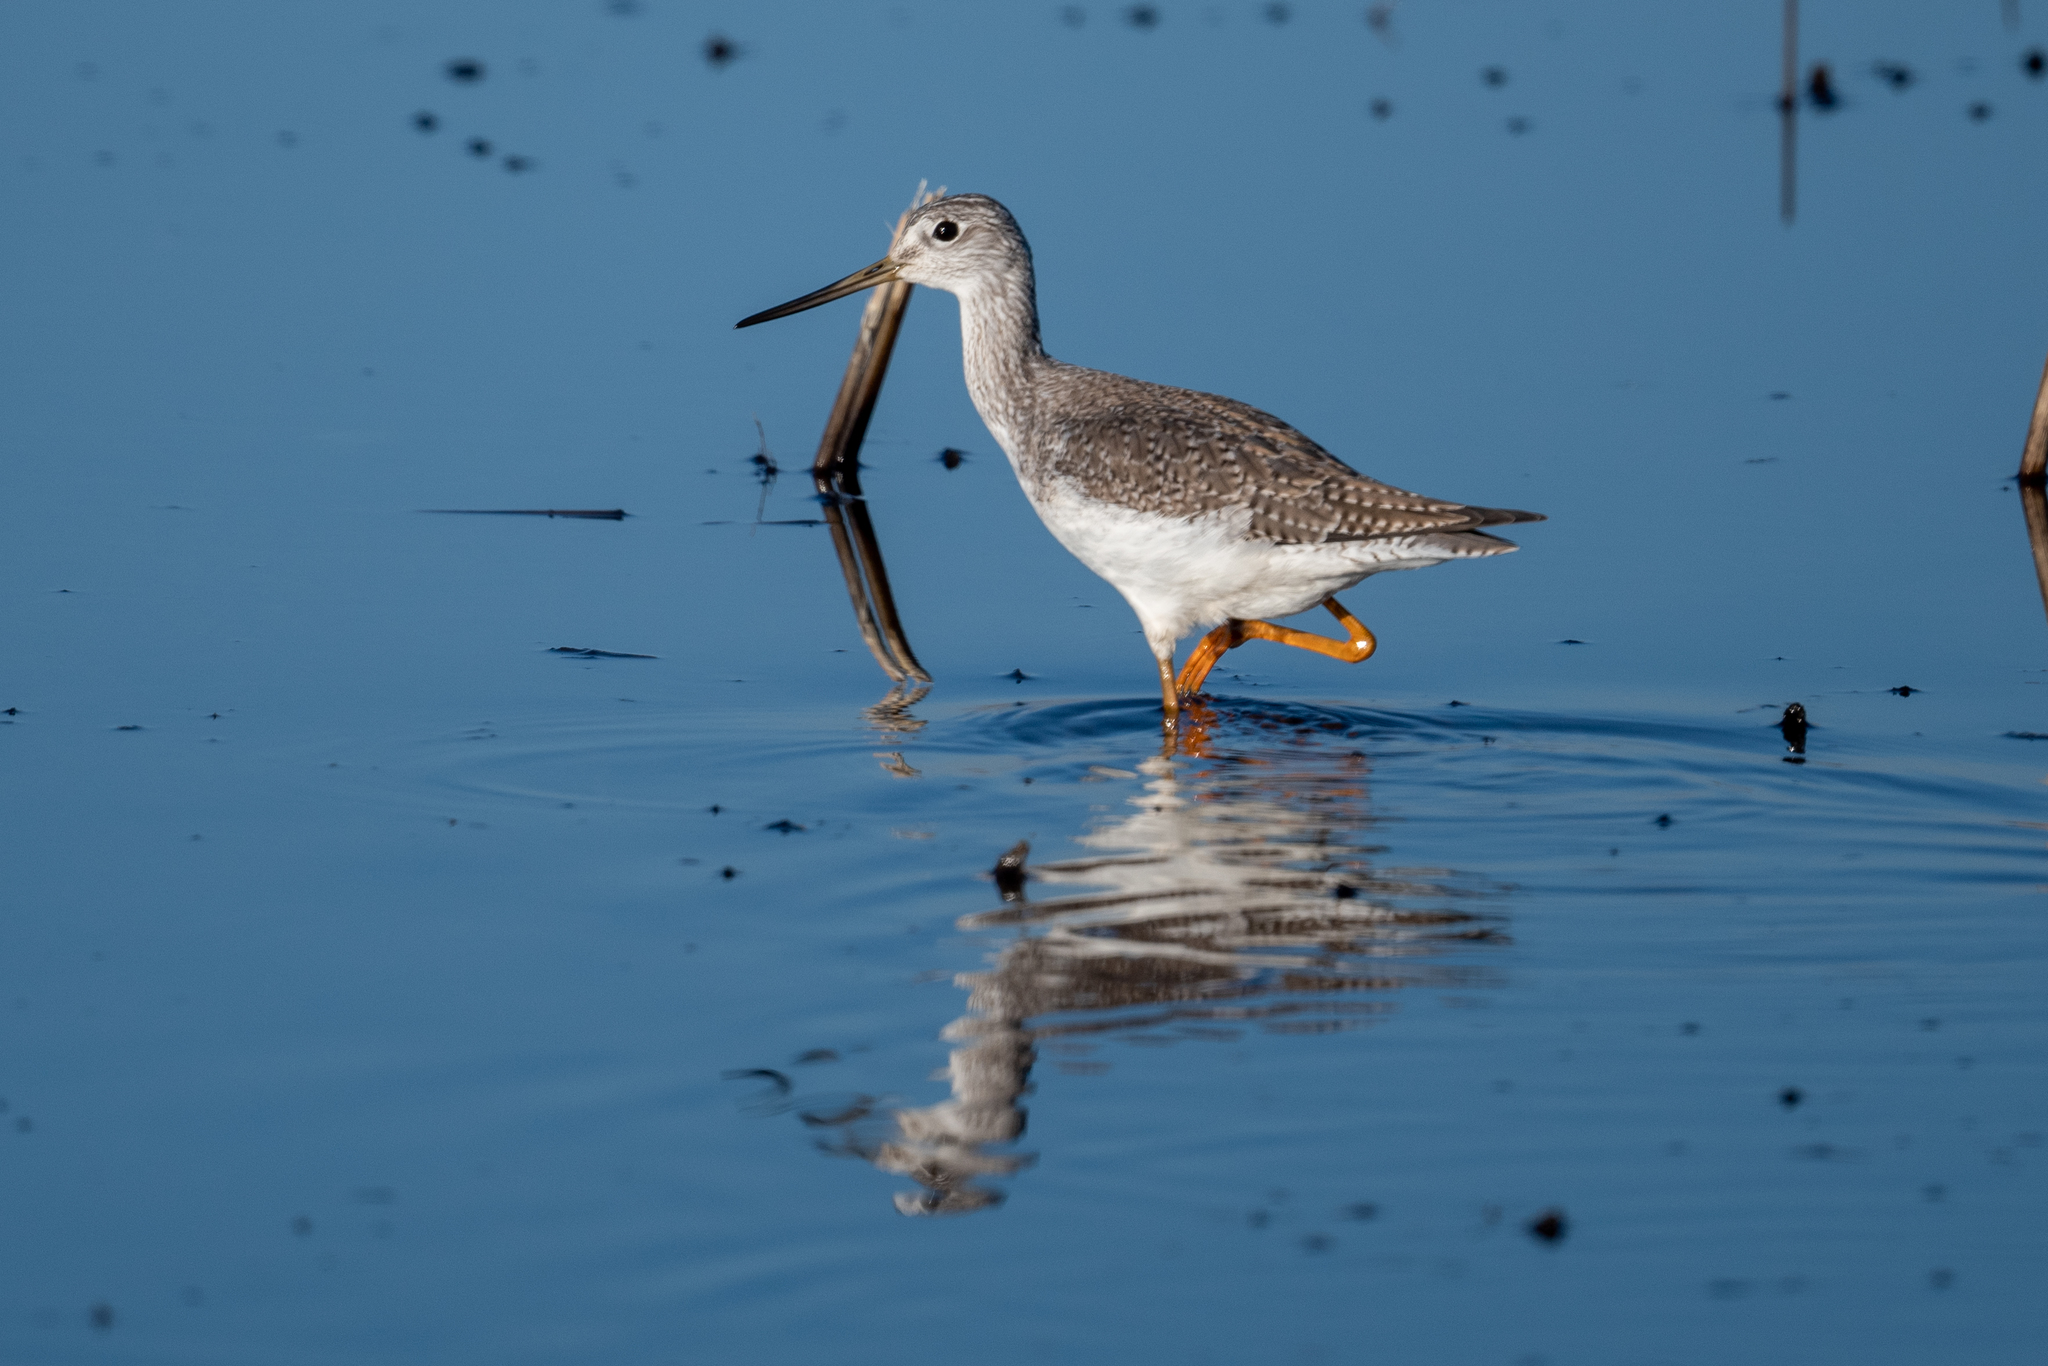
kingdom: Animalia
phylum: Chordata
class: Aves
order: Charadriiformes
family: Scolopacidae
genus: Tringa
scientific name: Tringa melanoleuca
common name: Greater yellowlegs
